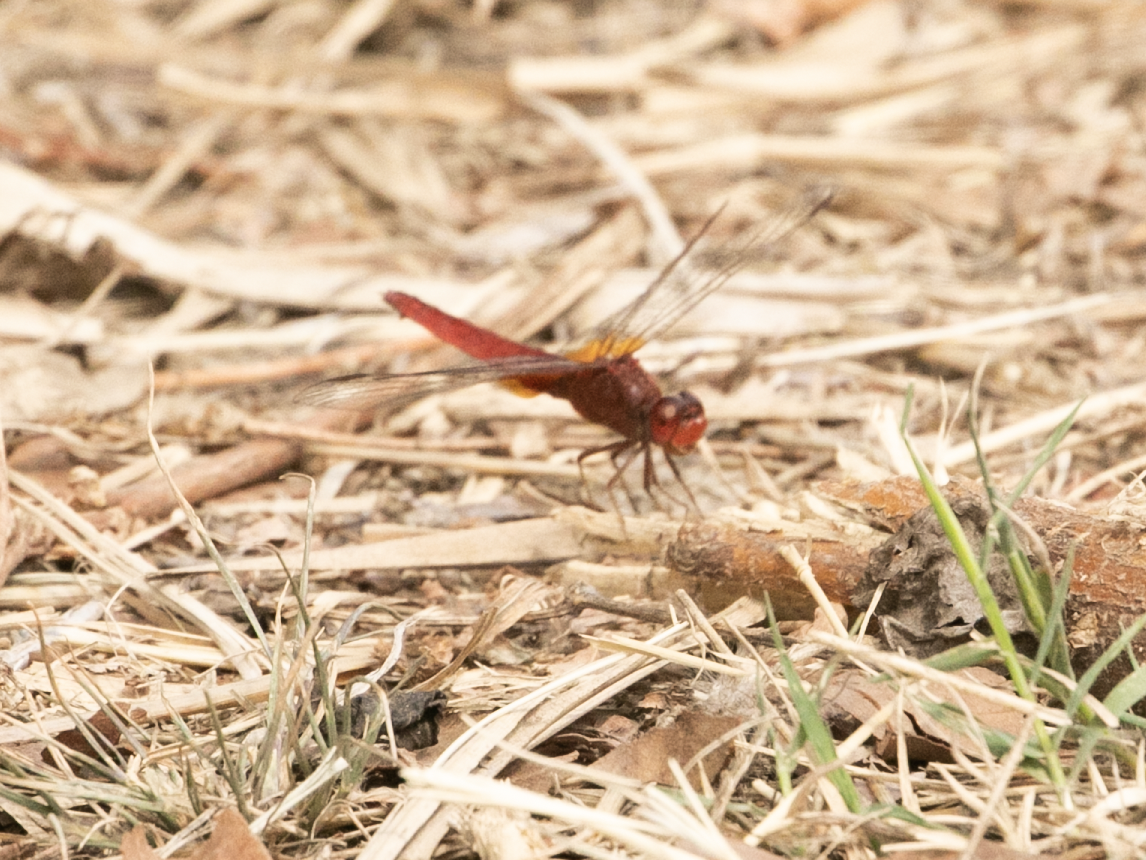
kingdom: Animalia
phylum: Arthropoda
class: Insecta
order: Odonata
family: Libellulidae
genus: Crocothemis
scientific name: Crocothemis erythraea
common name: Scarlet dragonfly
